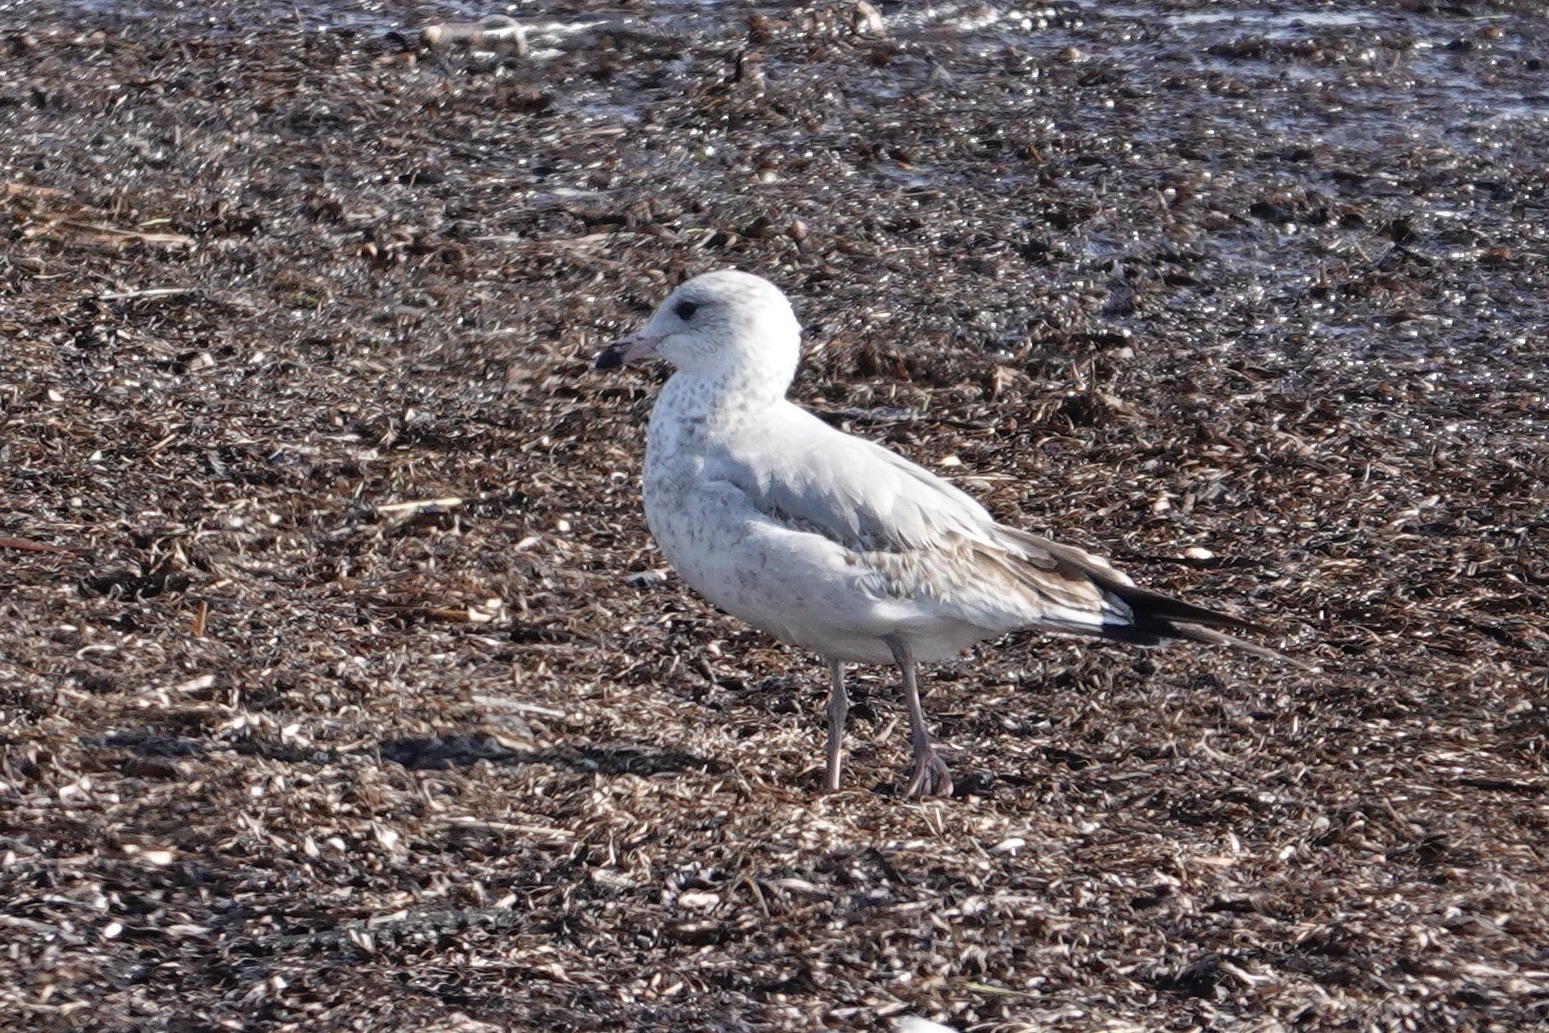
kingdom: Animalia
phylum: Chordata
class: Aves
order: Charadriiformes
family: Laridae
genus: Larus
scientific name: Larus delawarensis
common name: Ring-billed gull
